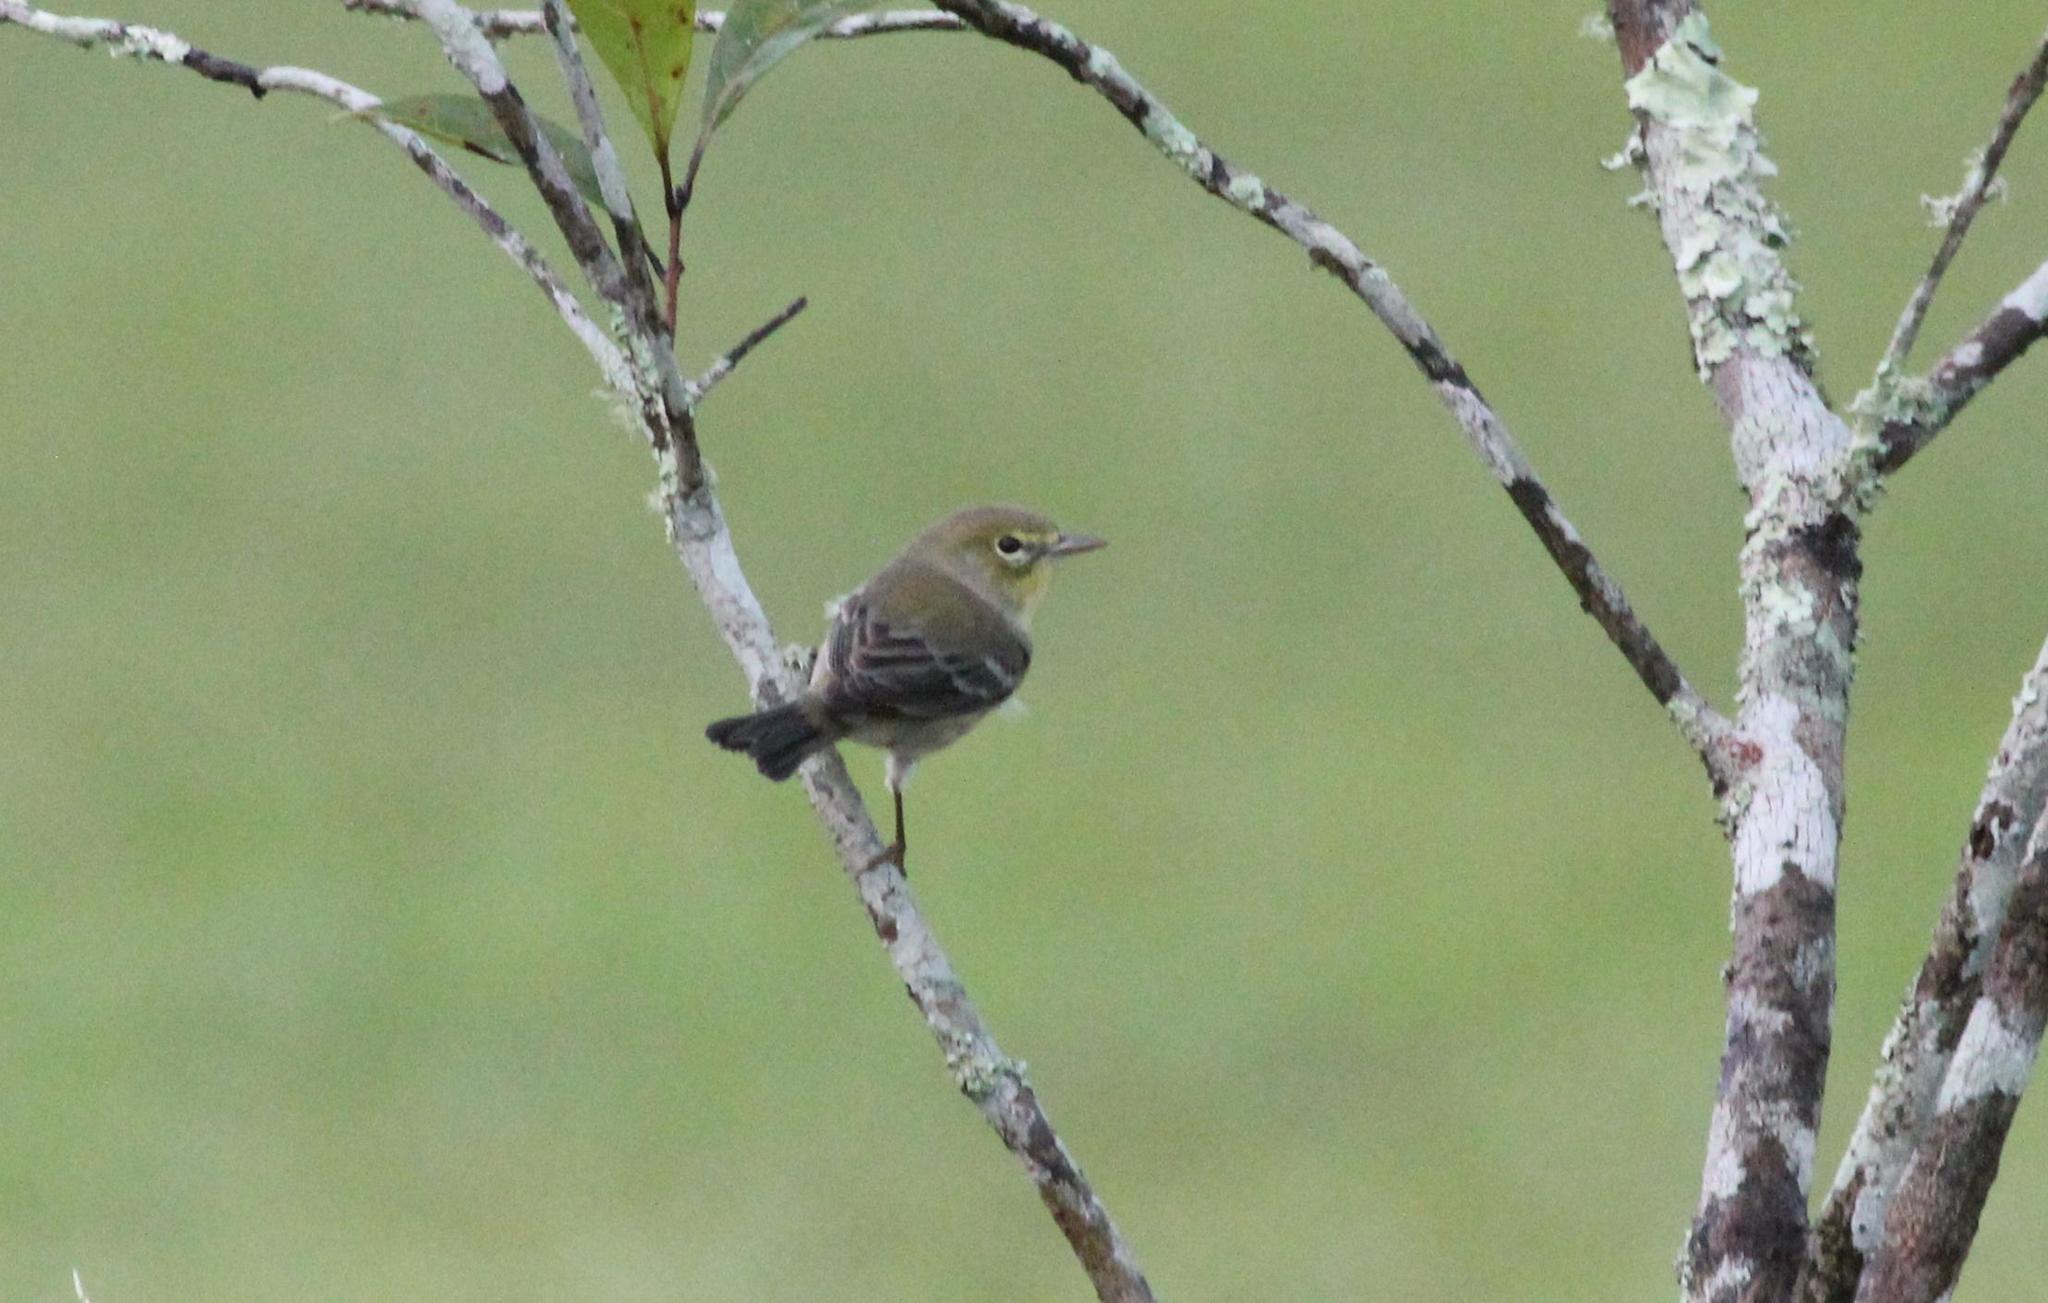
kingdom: Animalia
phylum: Chordata
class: Aves
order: Passeriformes
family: Parulidae
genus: Setophaga
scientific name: Setophaga pinus
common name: Pine warbler
